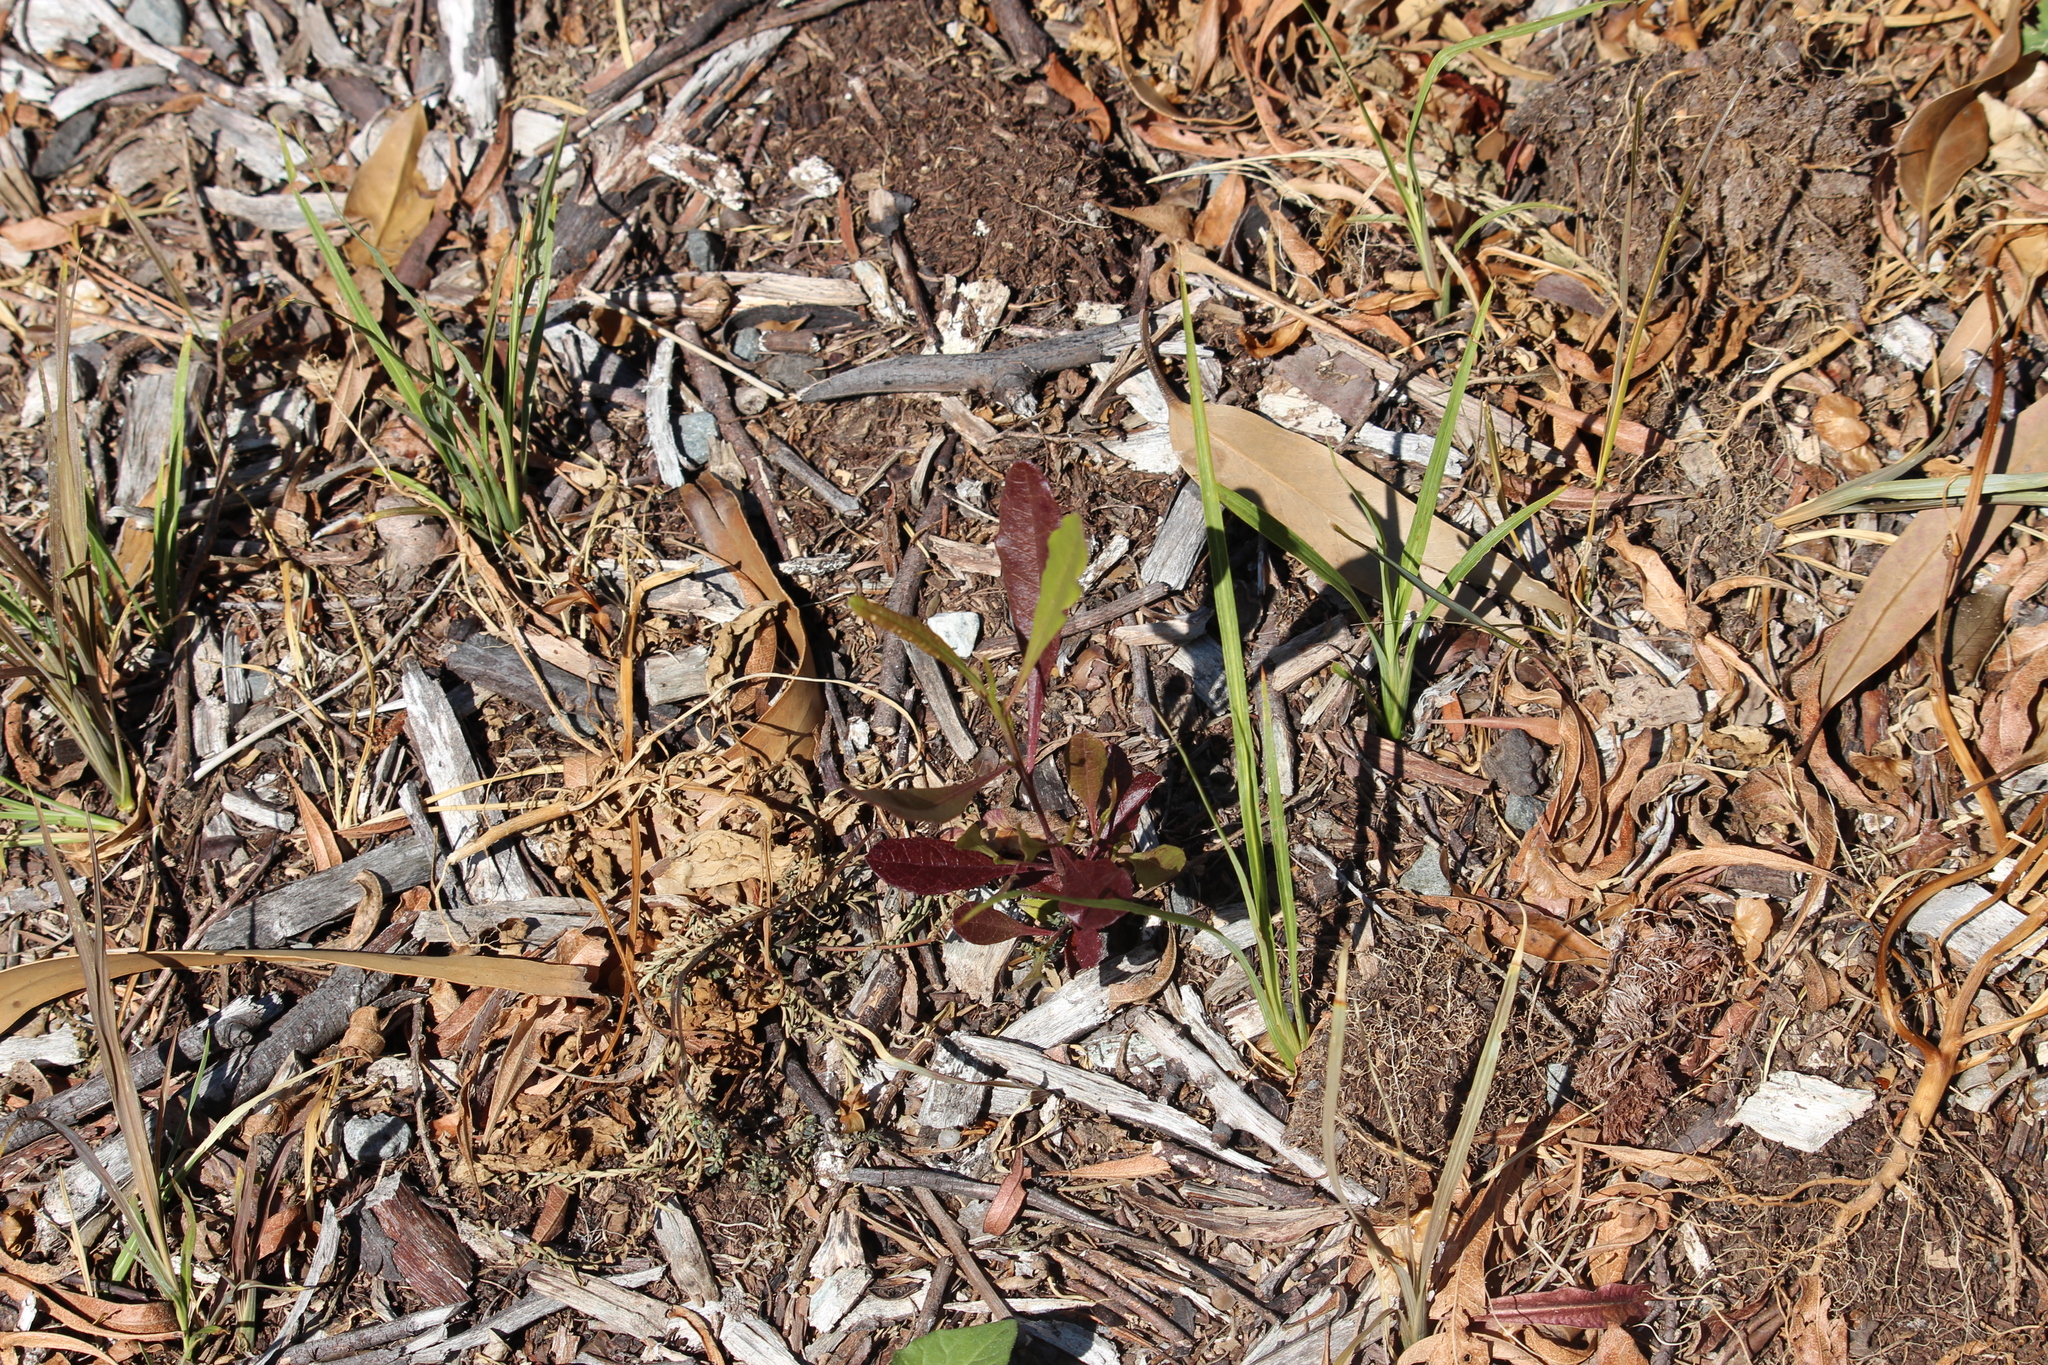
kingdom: Plantae
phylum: Tracheophyta
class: Magnoliopsida
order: Sapindales
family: Sapindaceae
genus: Dodonaea
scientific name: Dodonaea viscosa
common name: Hopbush
